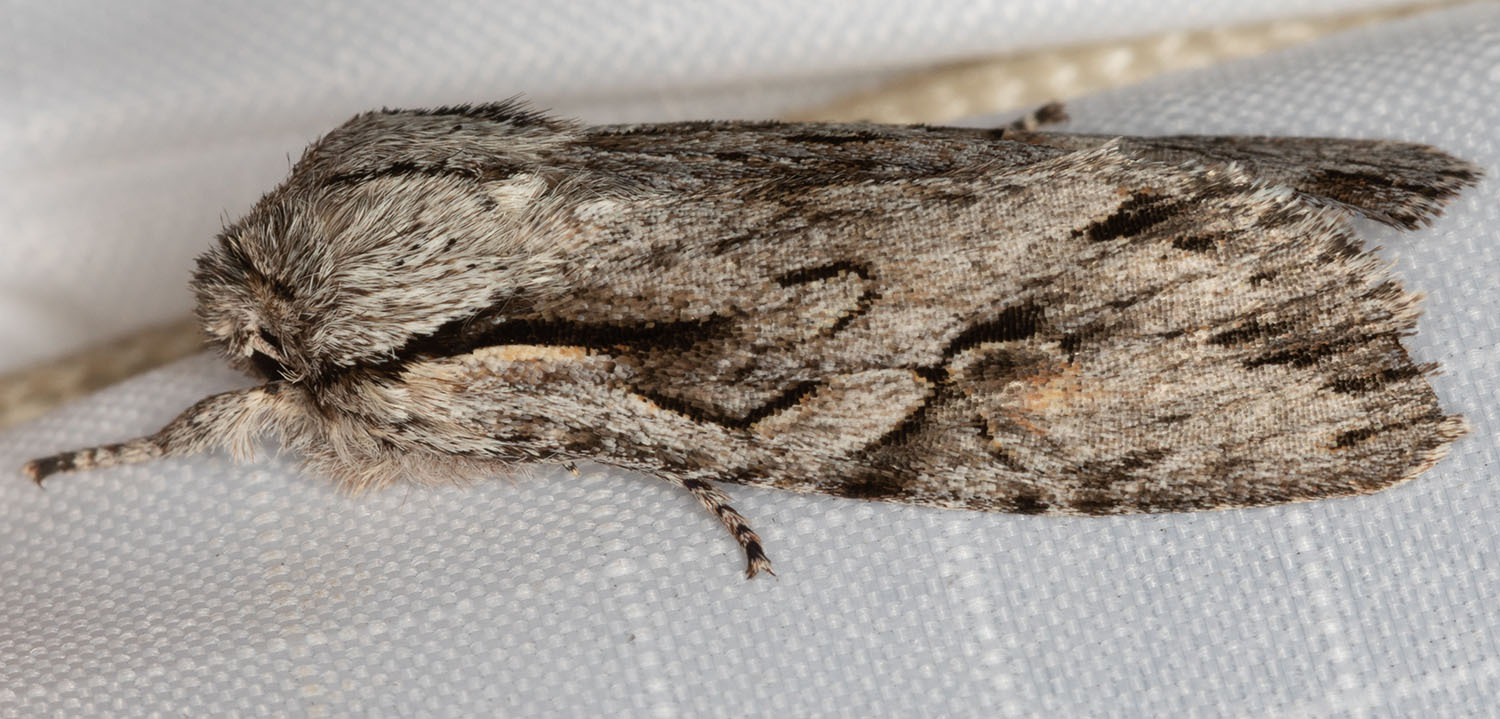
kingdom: Animalia
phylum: Arthropoda
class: Insecta
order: Lepidoptera
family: Noctuidae
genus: Egira
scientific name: Egira crucialis
